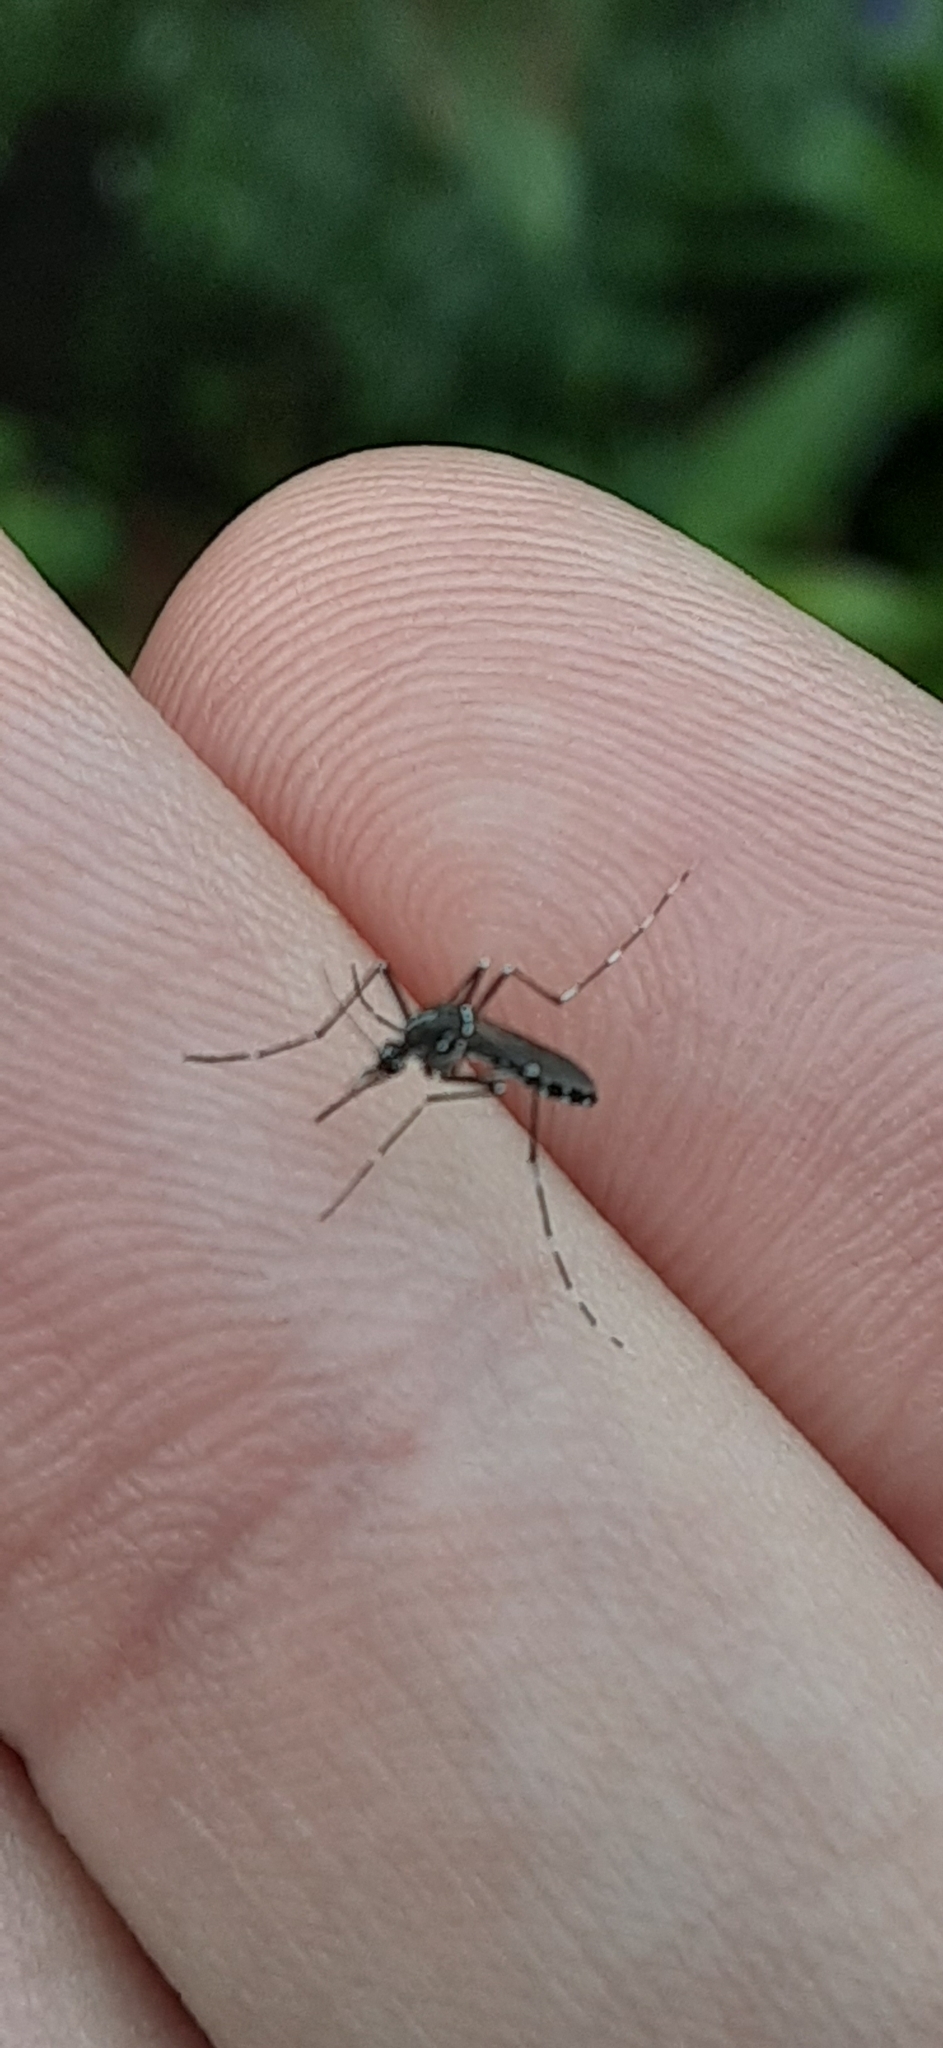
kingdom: Animalia
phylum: Arthropoda
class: Insecta
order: Diptera
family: Culicidae
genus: Aedes
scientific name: Aedes albopictus
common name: Tiger mosquito
